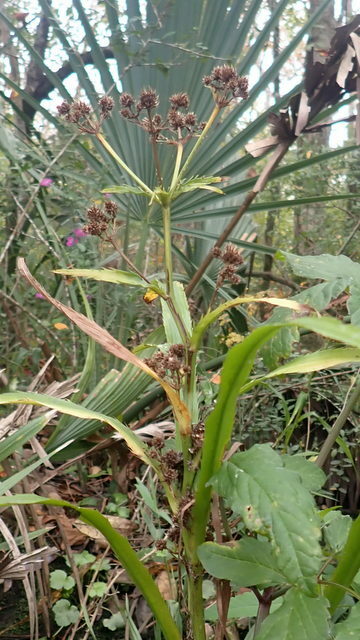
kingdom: Plantae
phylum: Tracheophyta
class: Magnoliopsida
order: Apiales
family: Apiaceae
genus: Eryngium
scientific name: Eryngium yuccifolium
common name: Button eryngo
